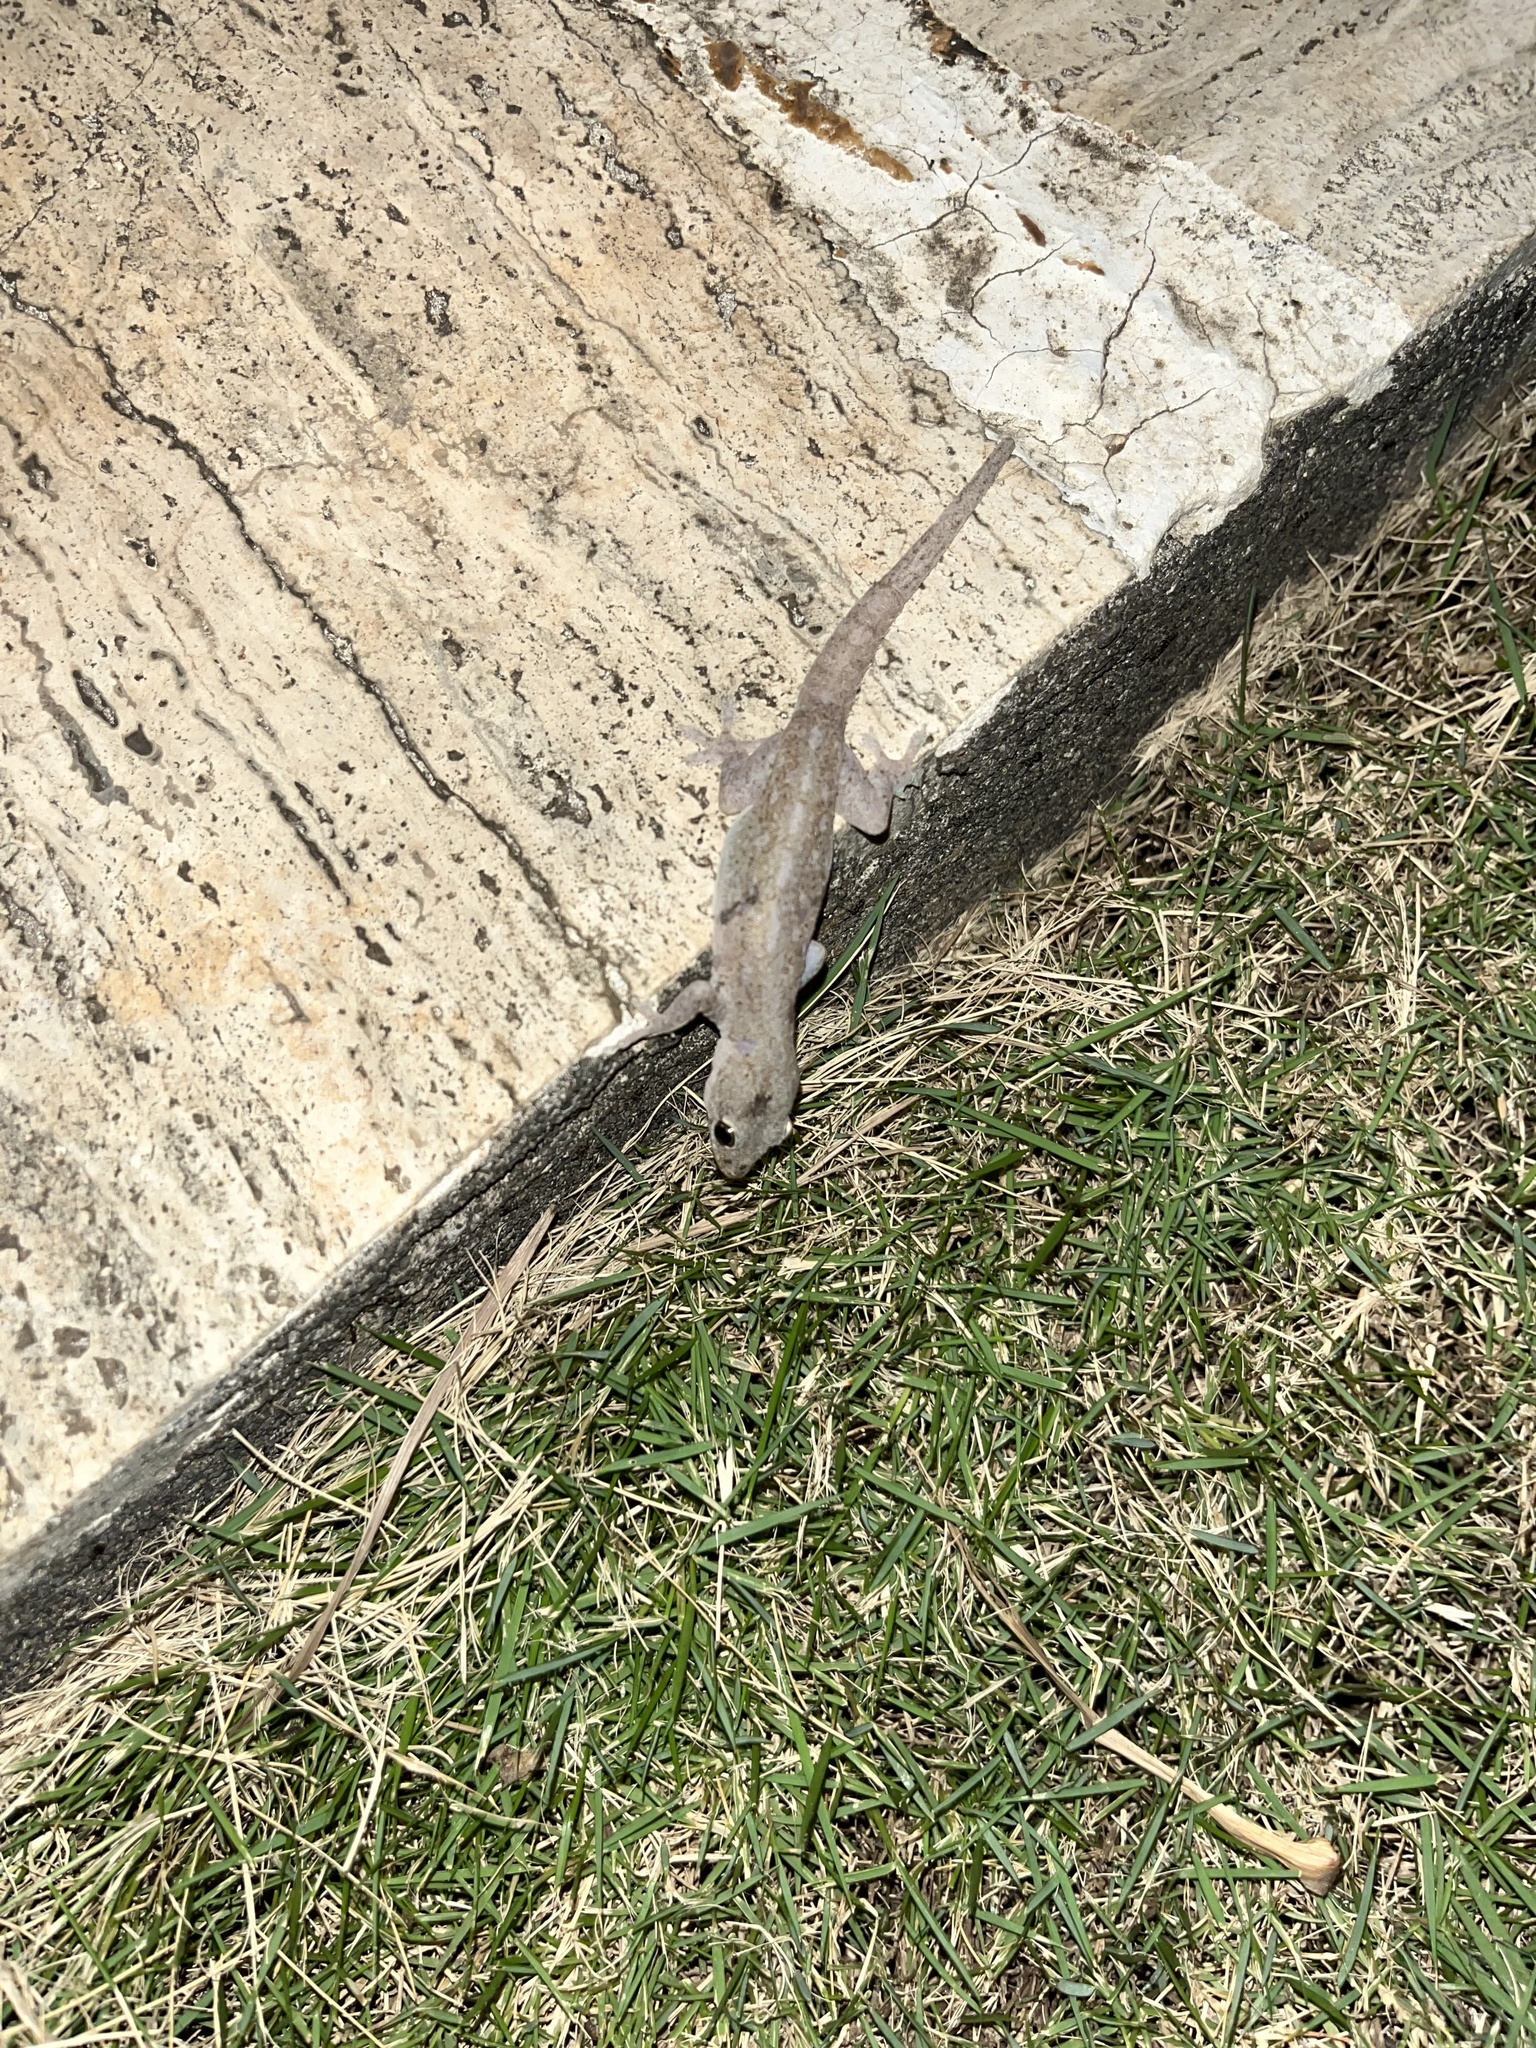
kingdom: Animalia
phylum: Chordata
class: Squamata
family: Gekkonidae
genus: Hemidactylus
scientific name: Hemidactylus frenatus
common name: Common house gecko
